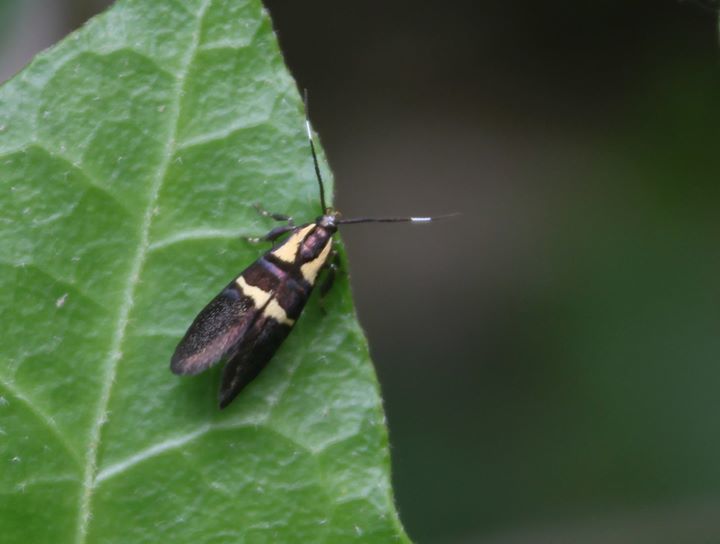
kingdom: Animalia
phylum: Arthropoda
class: Insecta
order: Lepidoptera
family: Oecophoridae
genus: Dafa
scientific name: Dafa oliviella
